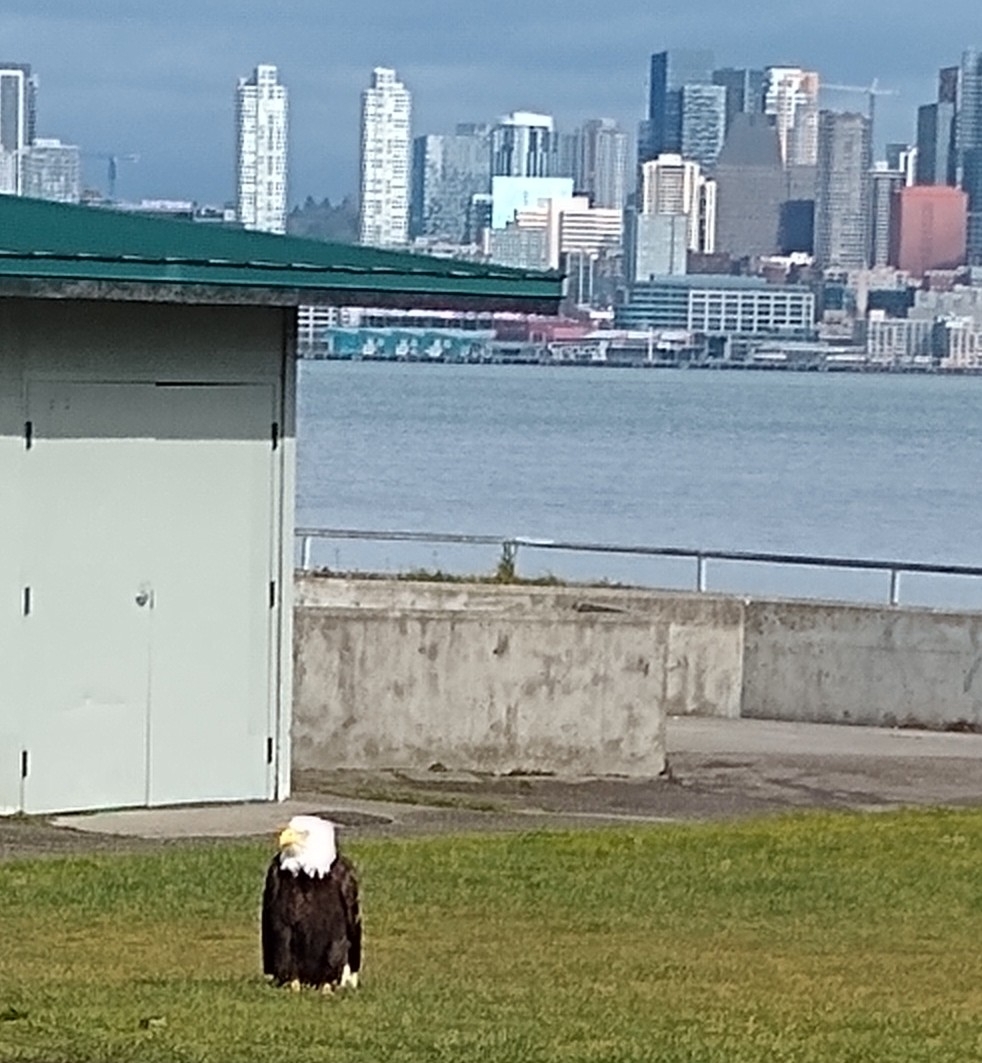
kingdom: Animalia
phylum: Chordata
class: Aves
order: Accipitriformes
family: Accipitridae
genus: Haliaeetus
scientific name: Haliaeetus leucocephalus
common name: Bald eagle
